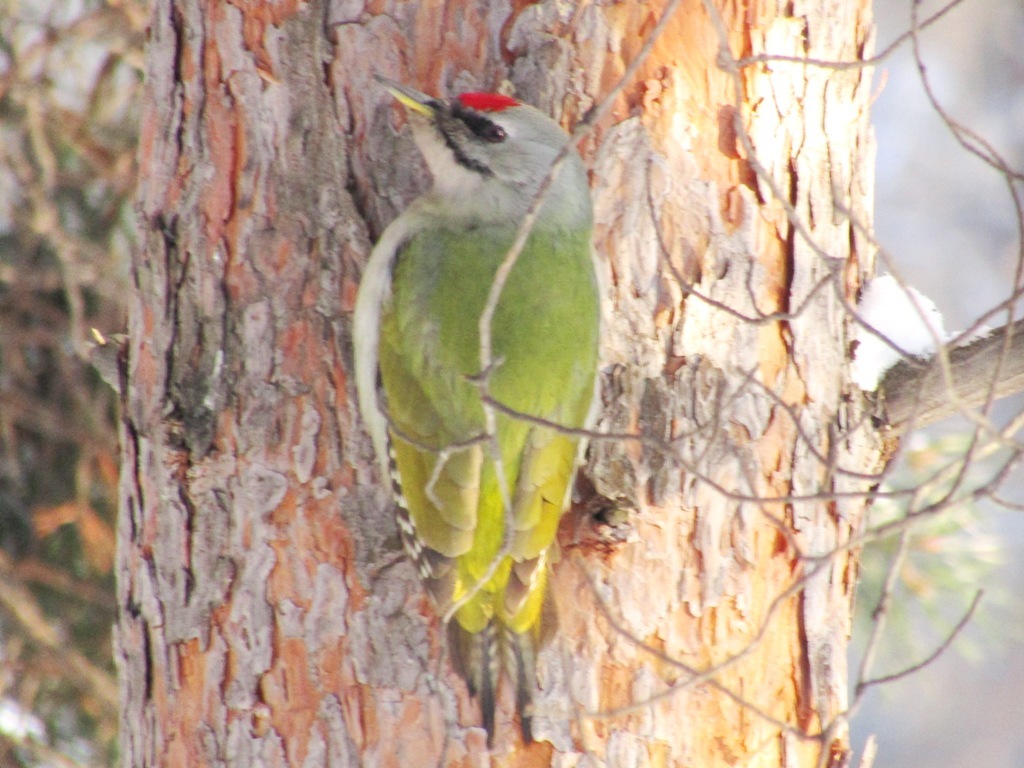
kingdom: Animalia
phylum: Chordata
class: Aves
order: Piciformes
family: Picidae
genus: Picus
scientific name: Picus canus
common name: Grey-headed woodpecker
